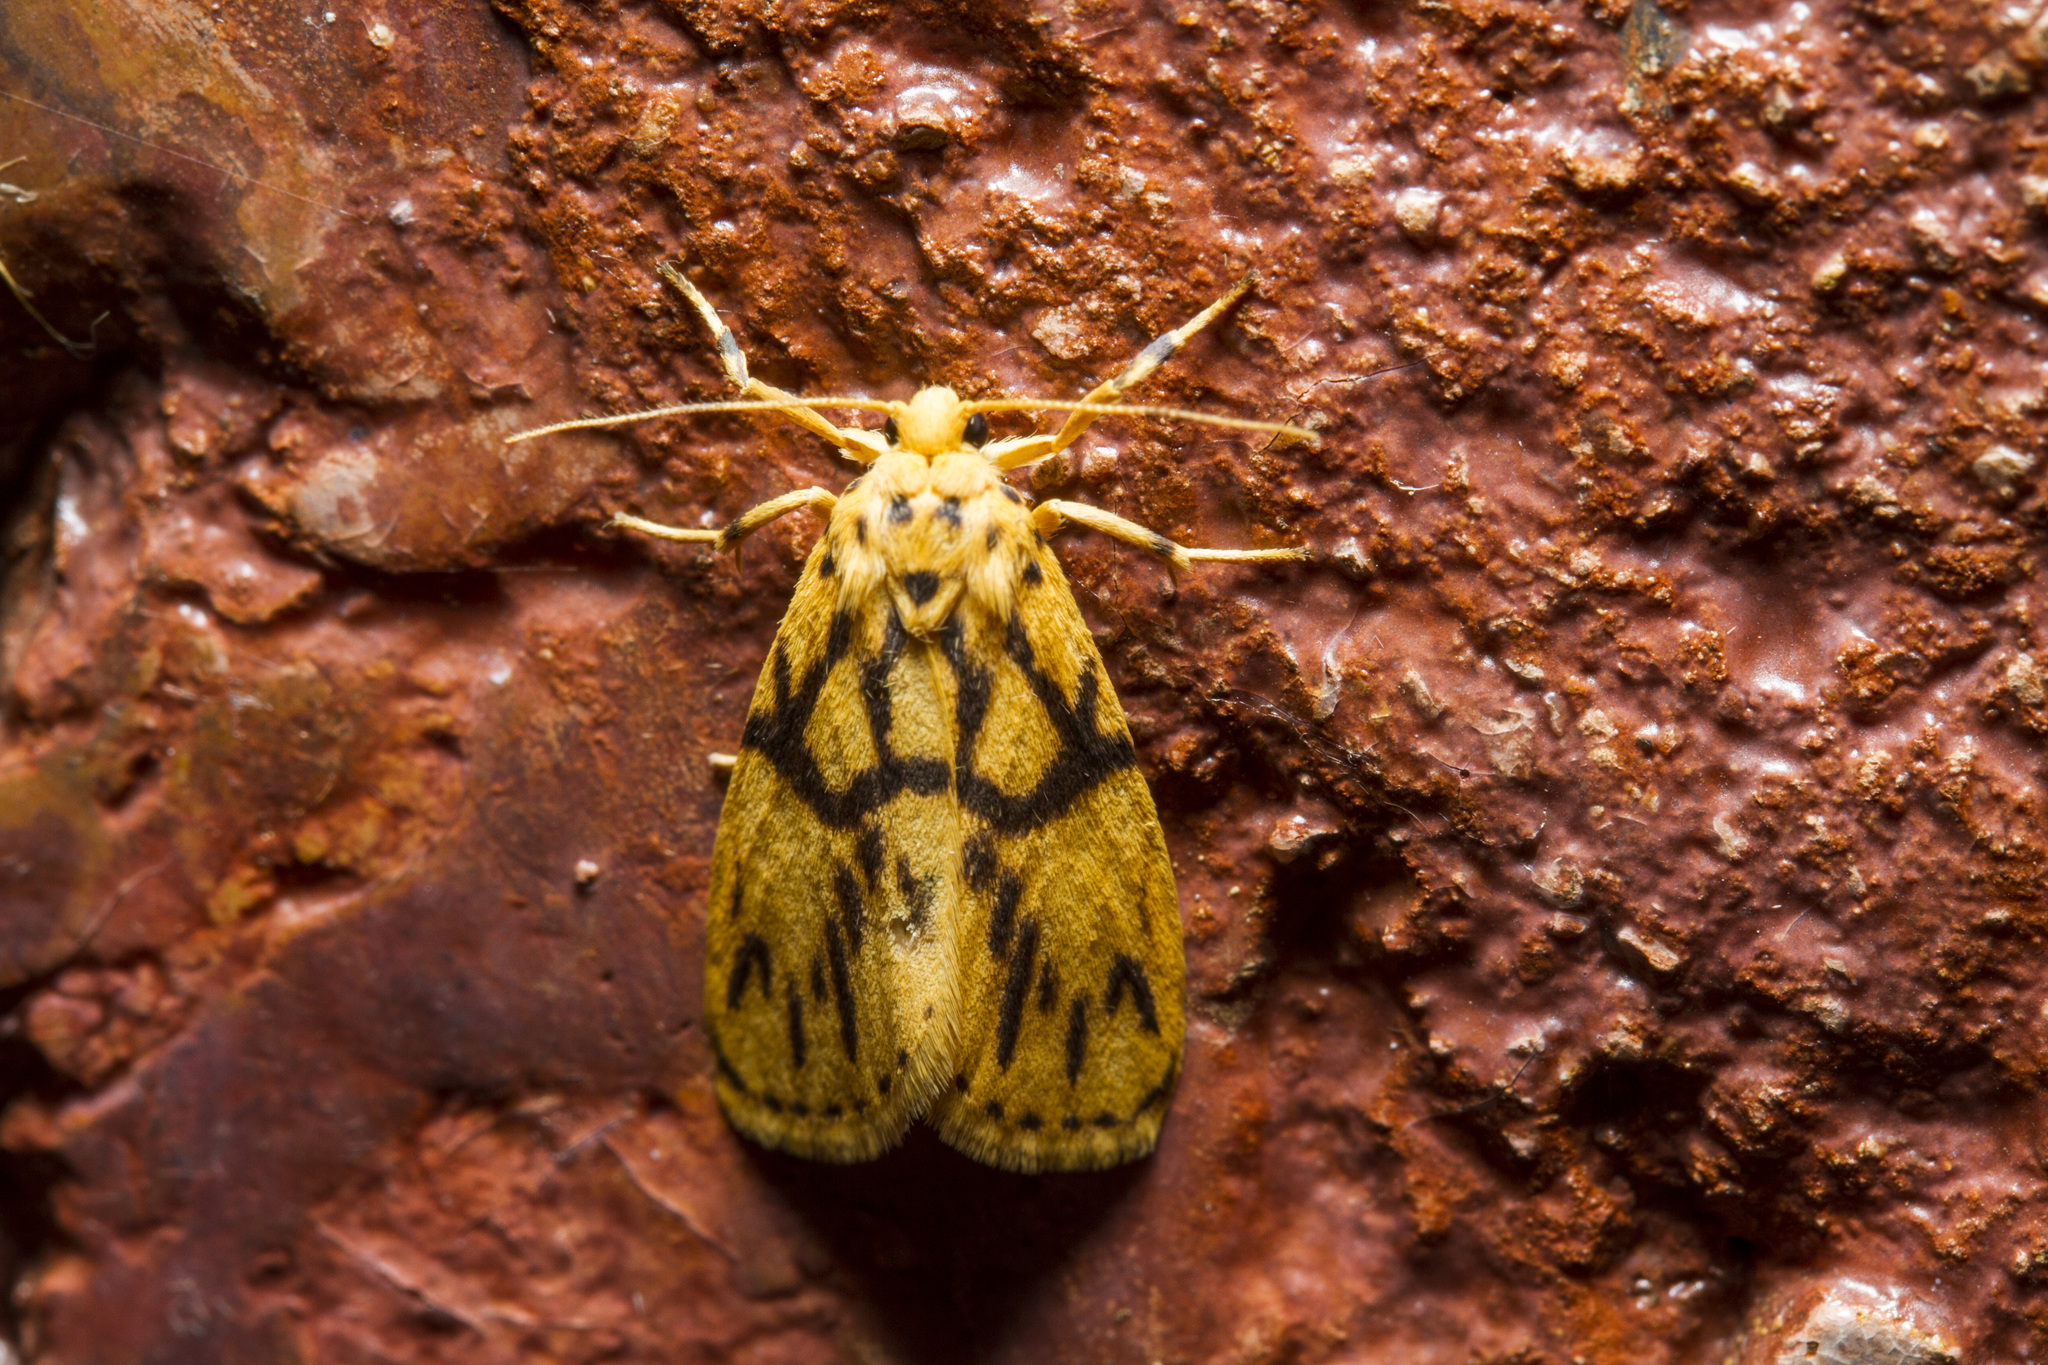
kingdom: Animalia
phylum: Arthropoda
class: Insecta
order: Lepidoptera
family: Erebidae
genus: Miltochrista
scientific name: Miltochrista terminospota
